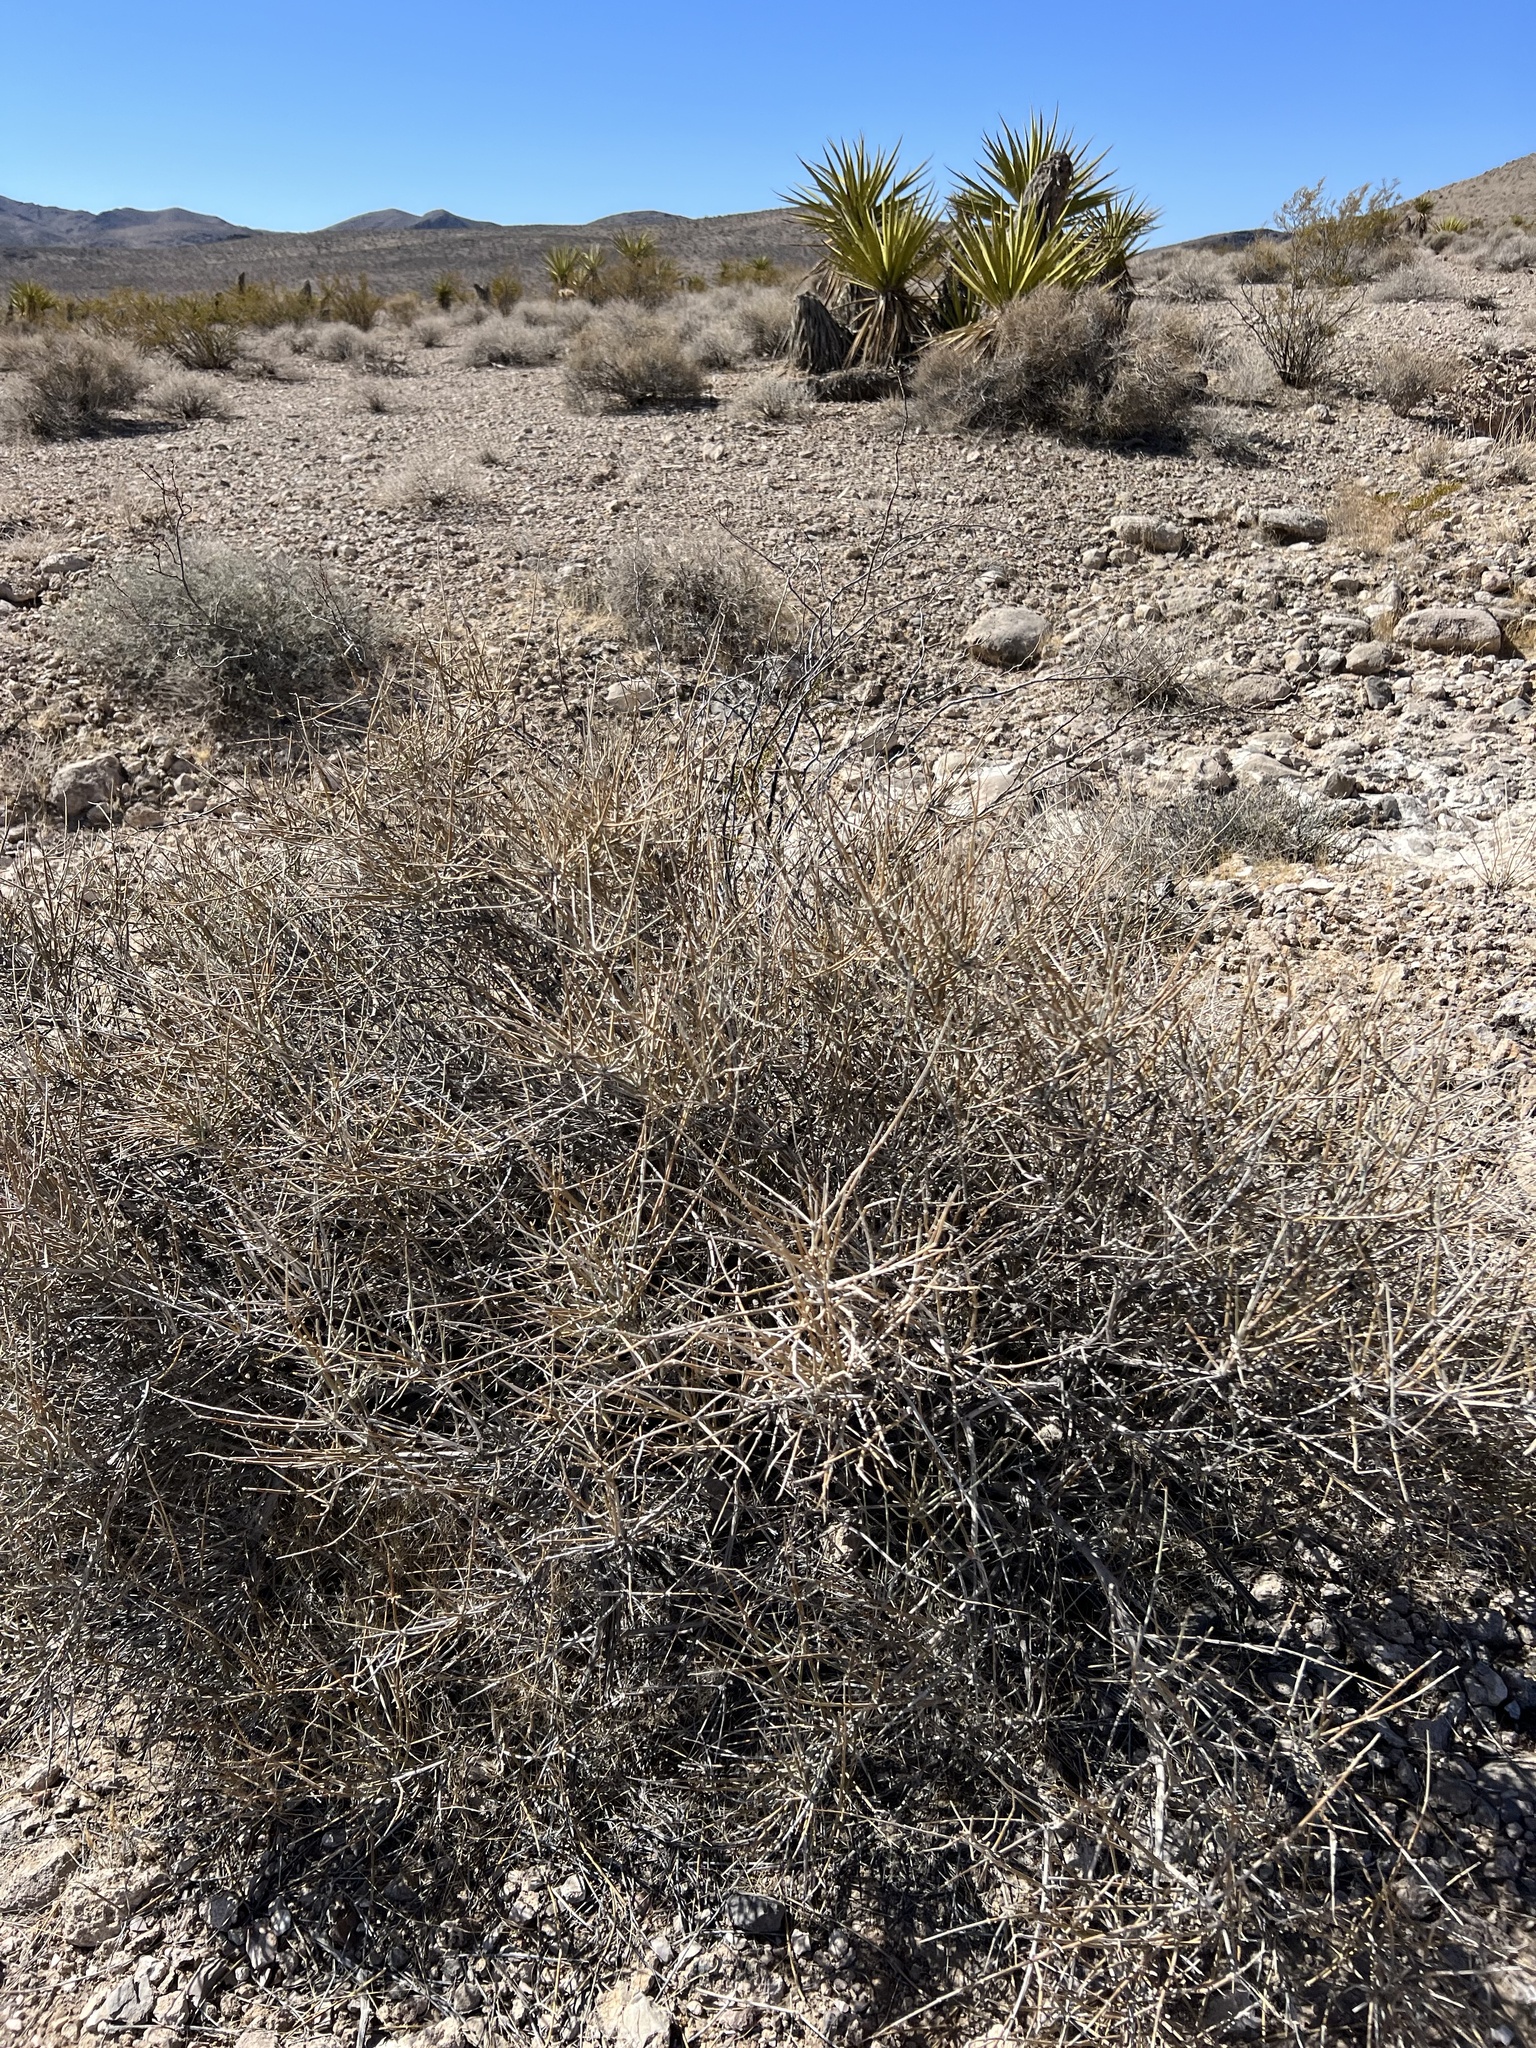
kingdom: Plantae
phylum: Tracheophyta
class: Gnetopsida
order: Ephedrales
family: Ephedraceae
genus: Ephedra
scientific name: Ephedra nevadensis
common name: Gray ephedra
